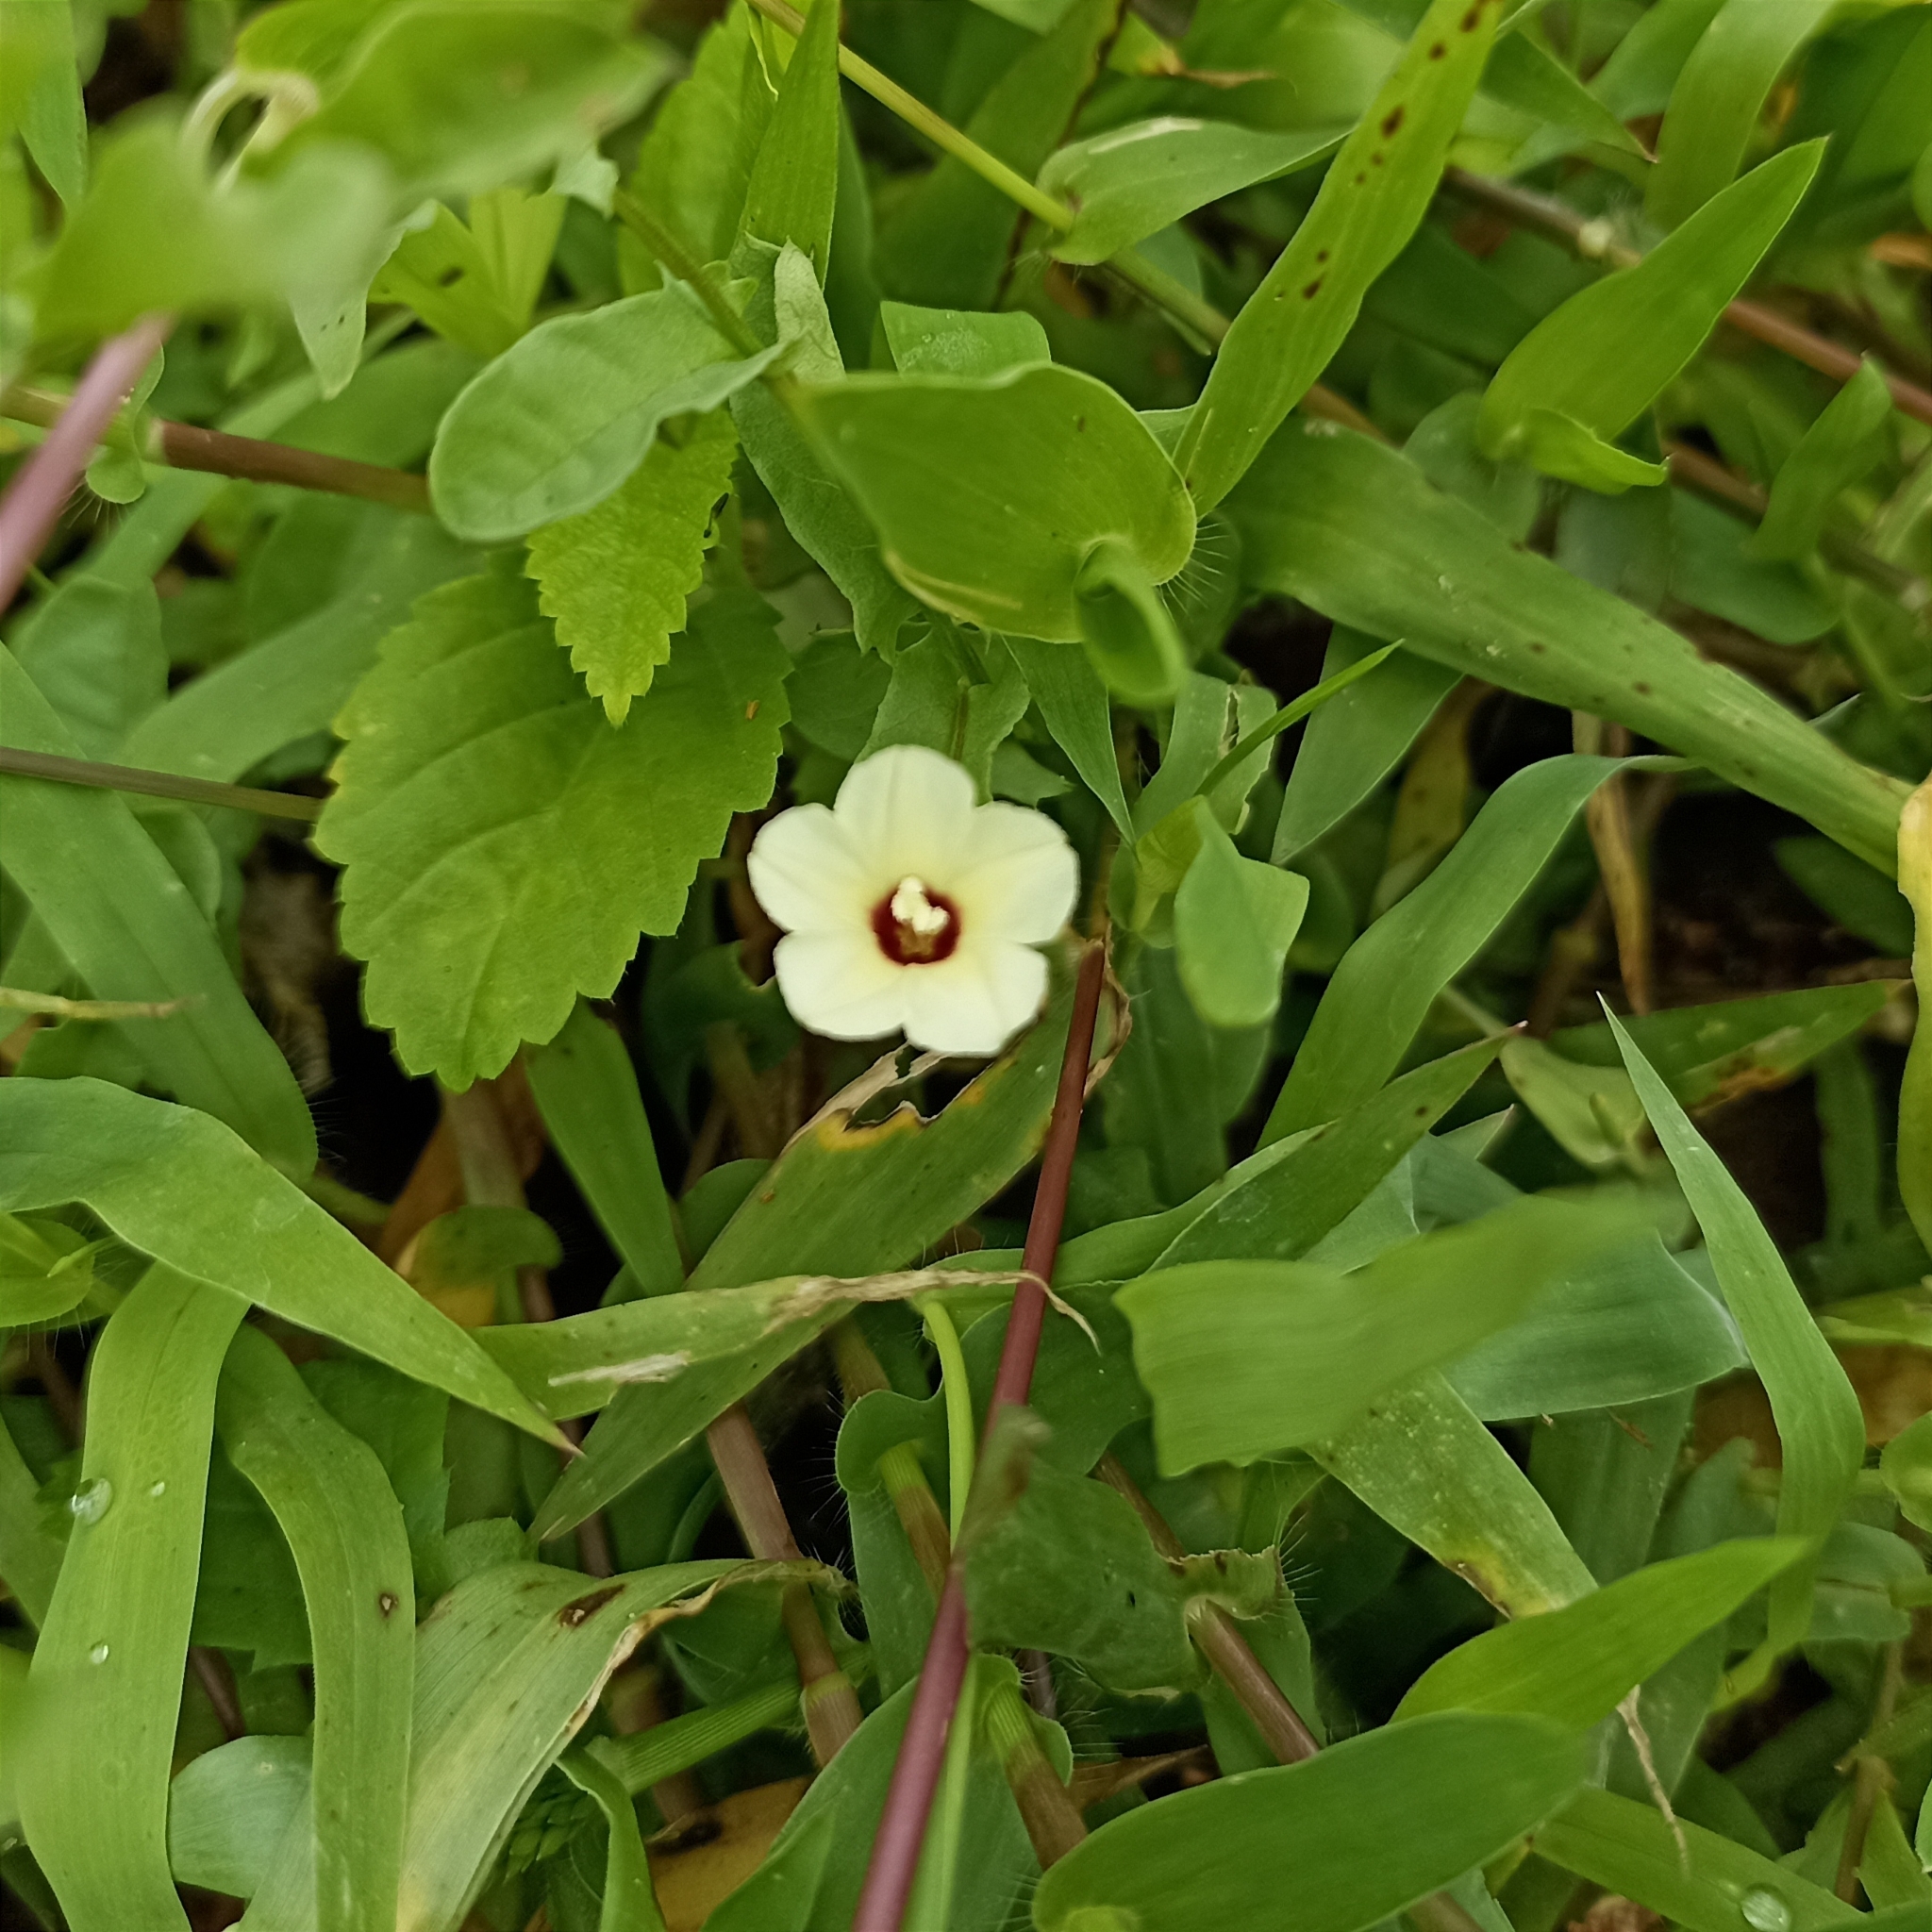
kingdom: Plantae
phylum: Tracheophyta
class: Magnoliopsida
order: Solanales
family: Convolvulaceae
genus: Xenostegia
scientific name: Xenostegia tridentata
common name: African morningvine
